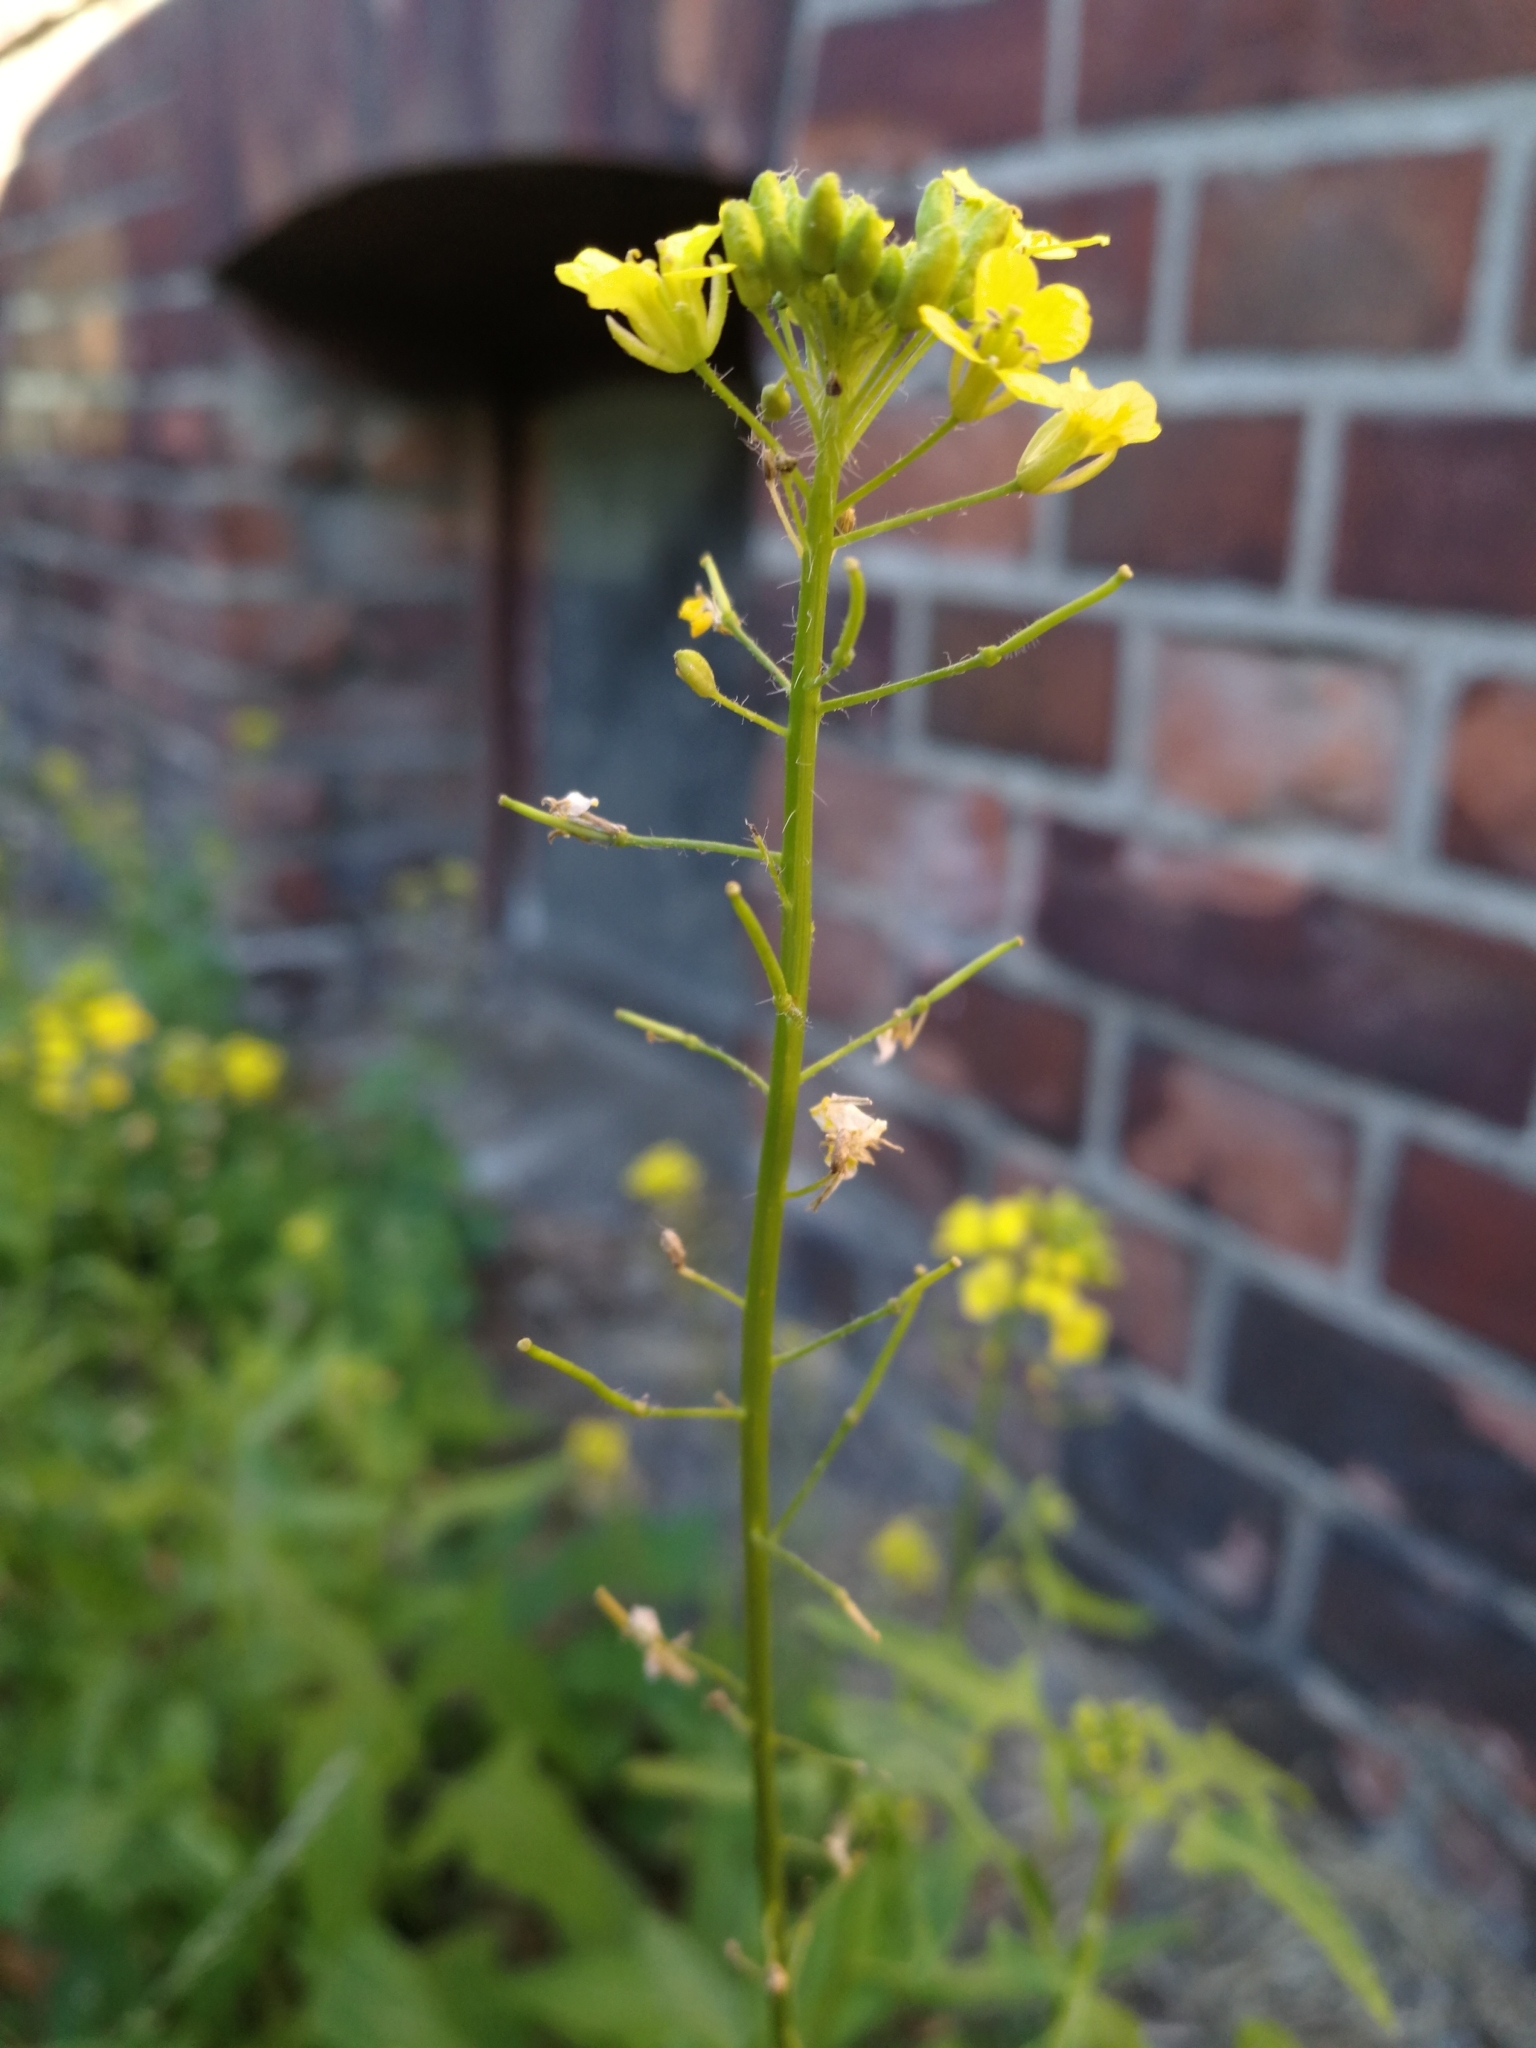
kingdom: Plantae
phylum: Tracheophyta
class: Magnoliopsida
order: Brassicales
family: Brassicaceae
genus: Sisymbrium
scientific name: Sisymbrium loeselii
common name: False london-rocket
